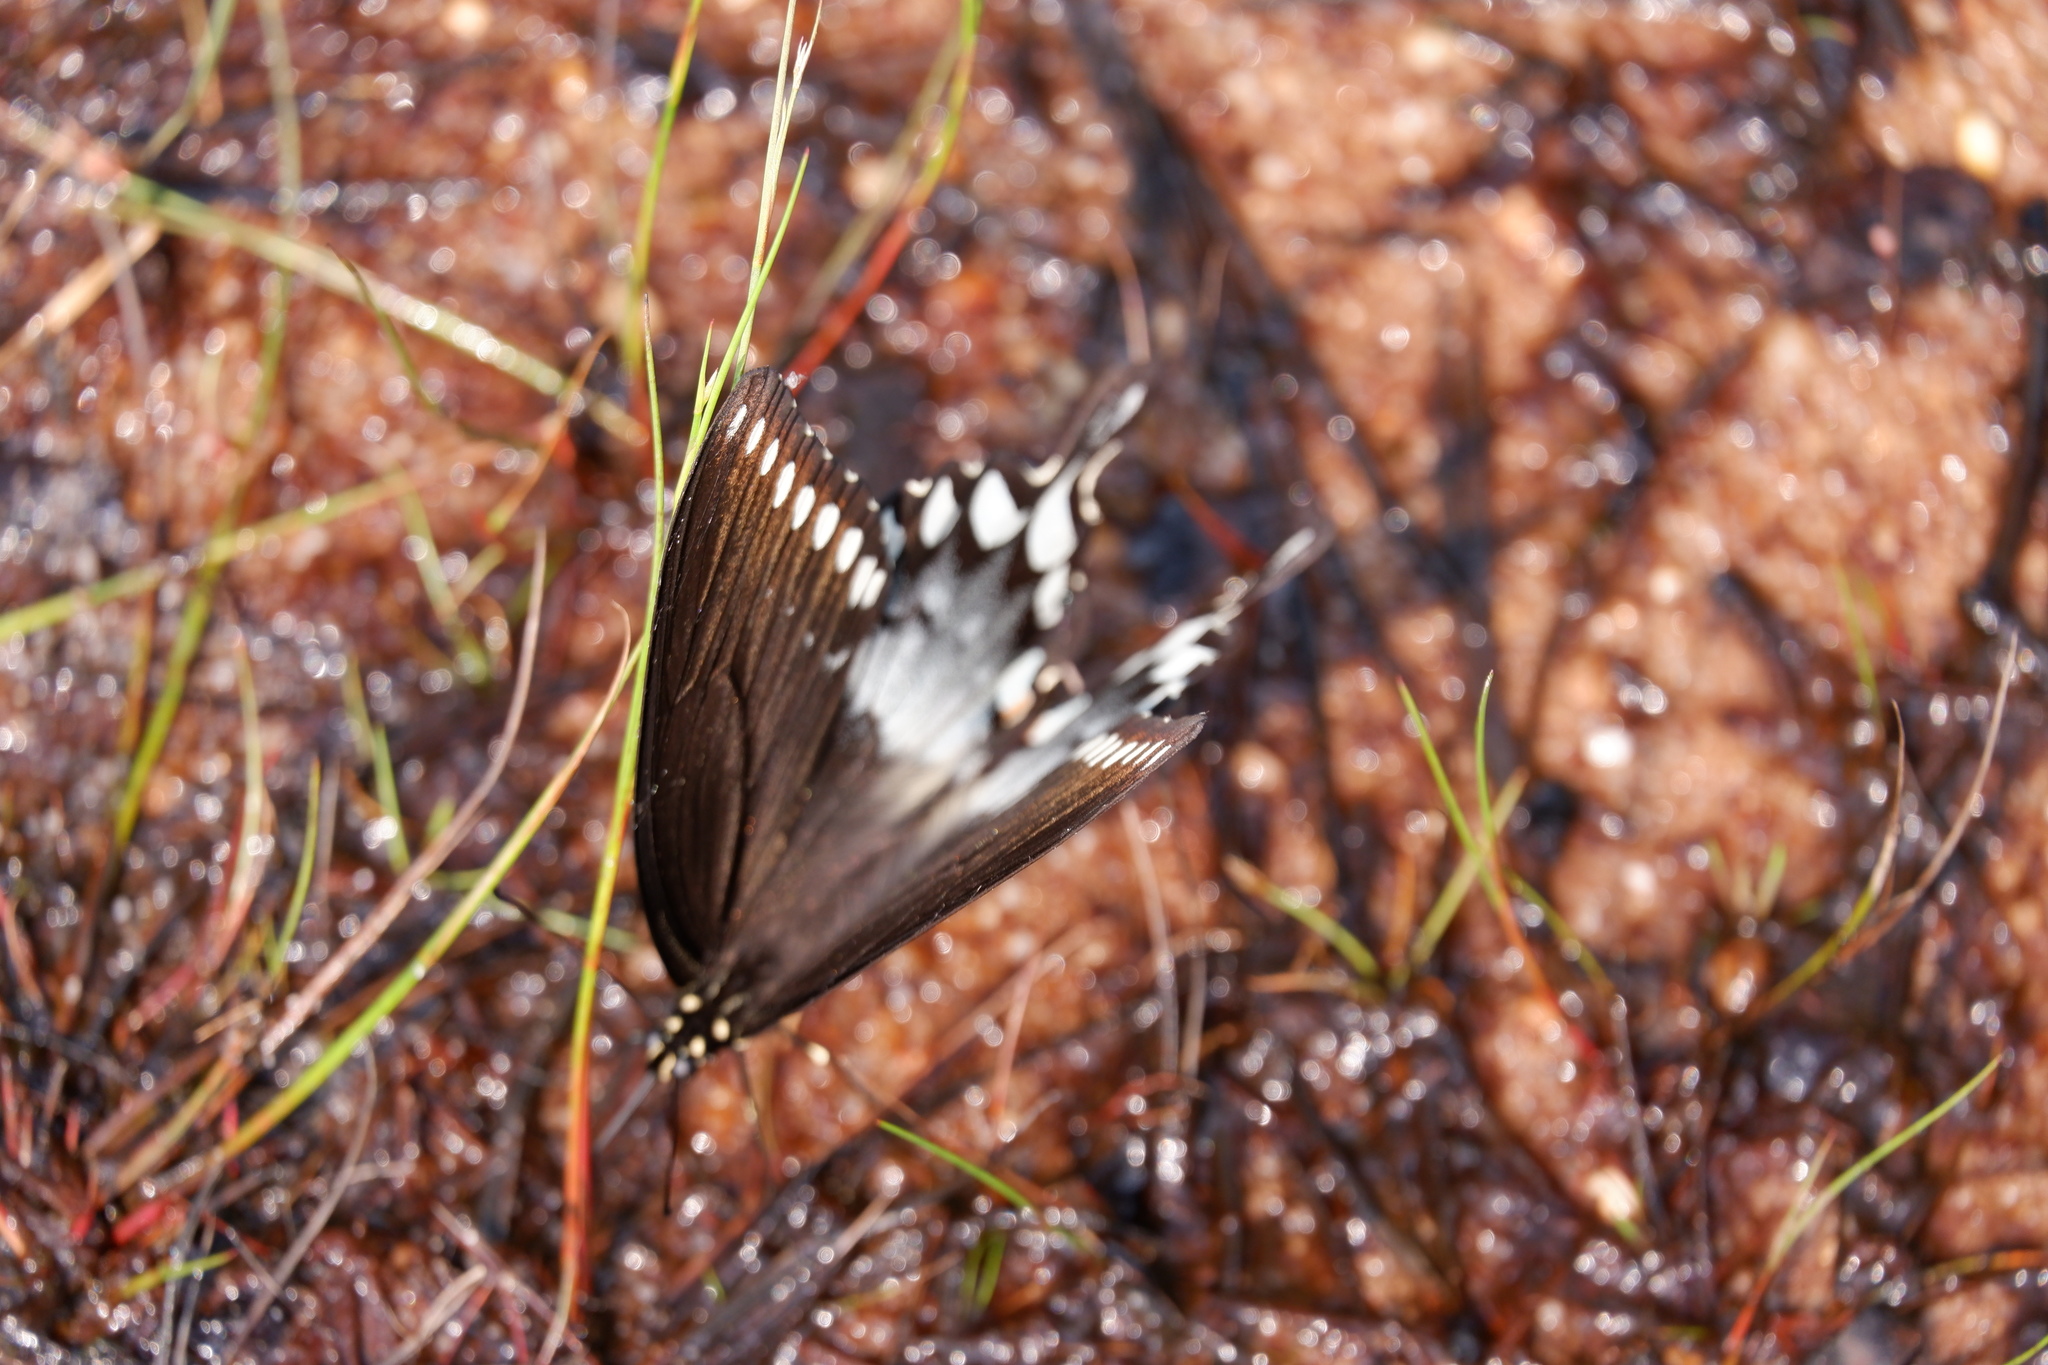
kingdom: Animalia
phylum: Arthropoda
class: Insecta
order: Lepidoptera
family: Papilionidae
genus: Papilio
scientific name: Papilio troilus
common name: Spicebush swallowtail
